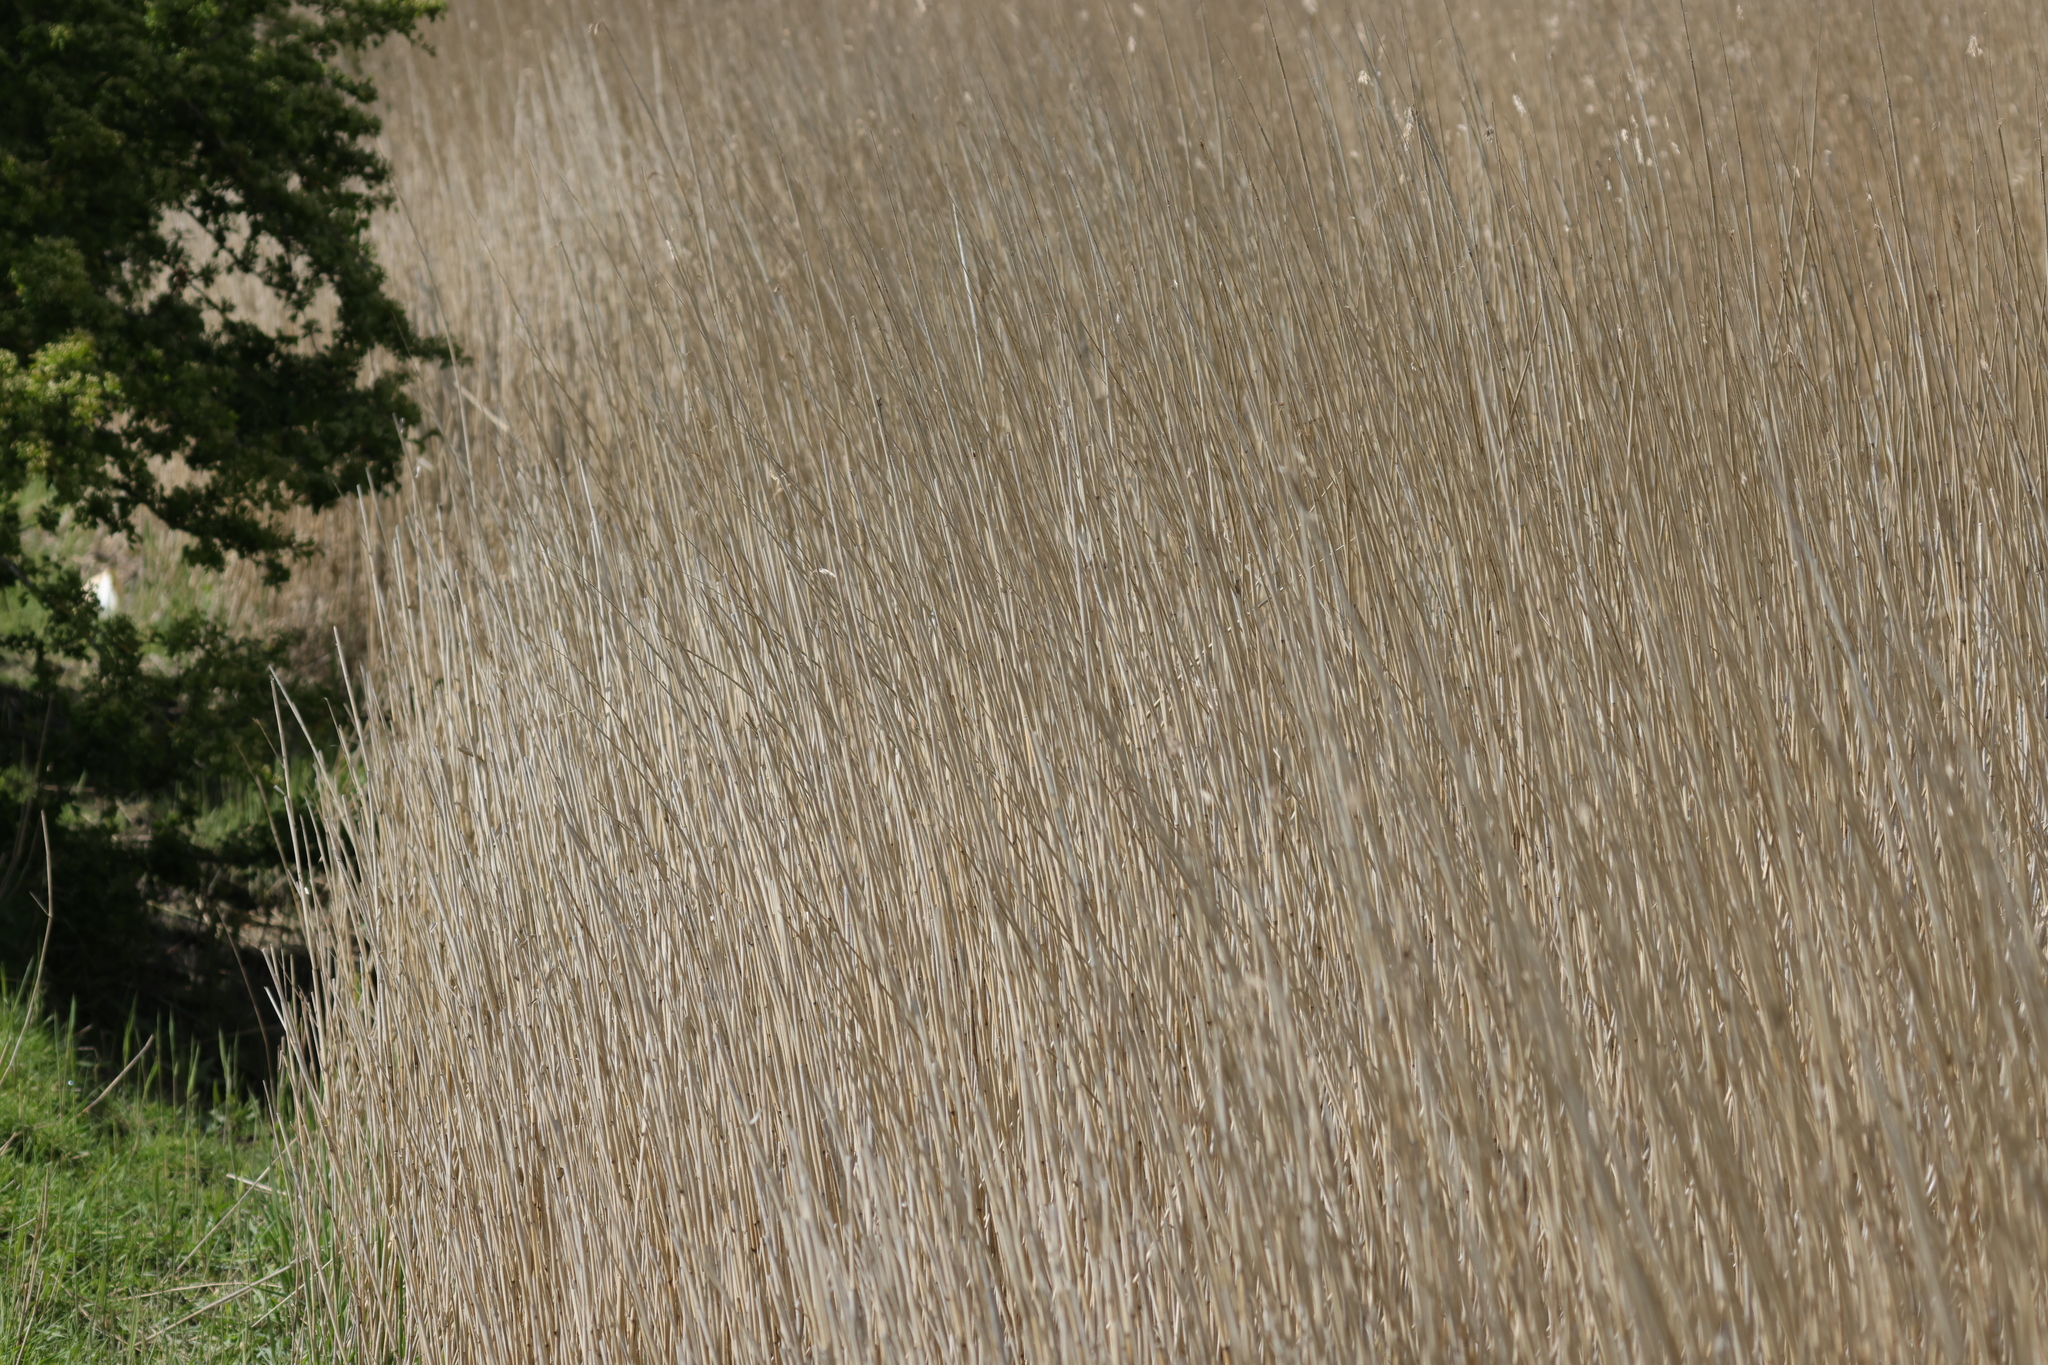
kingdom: Plantae
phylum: Tracheophyta
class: Liliopsida
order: Poales
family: Poaceae
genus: Phragmites
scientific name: Phragmites australis
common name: Common reed
